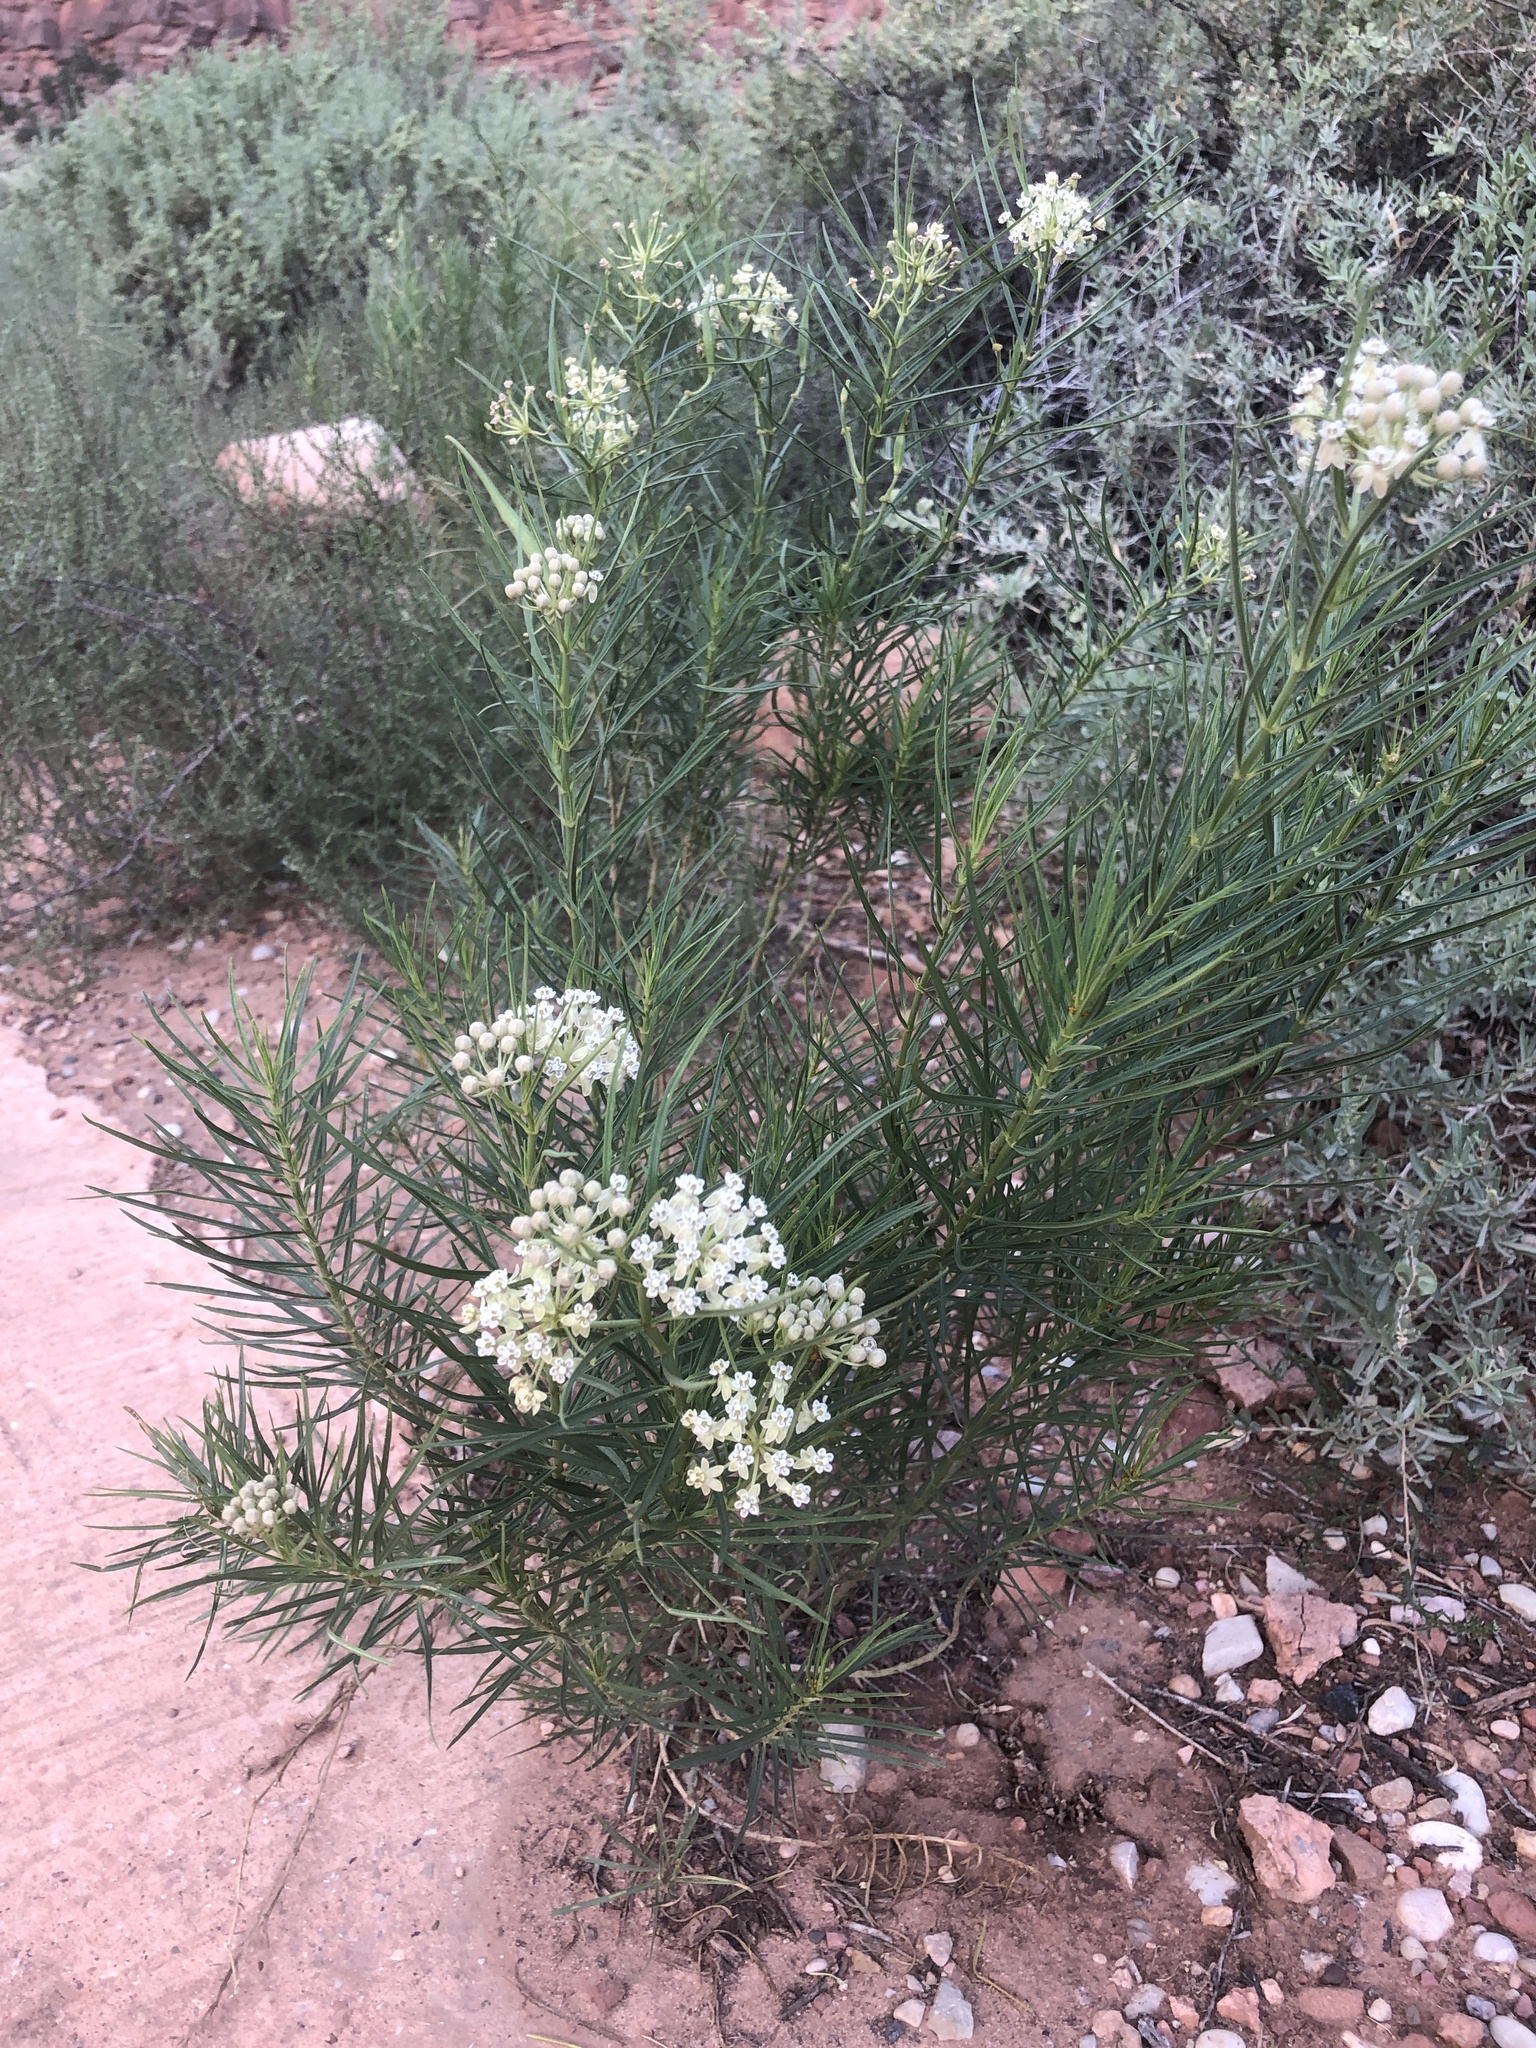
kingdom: Plantae
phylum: Tracheophyta
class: Magnoliopsida
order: Gentianales
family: Apocynaceae
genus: Asclepias
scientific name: Asclepias subverticillata
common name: Horsetail milkweed
